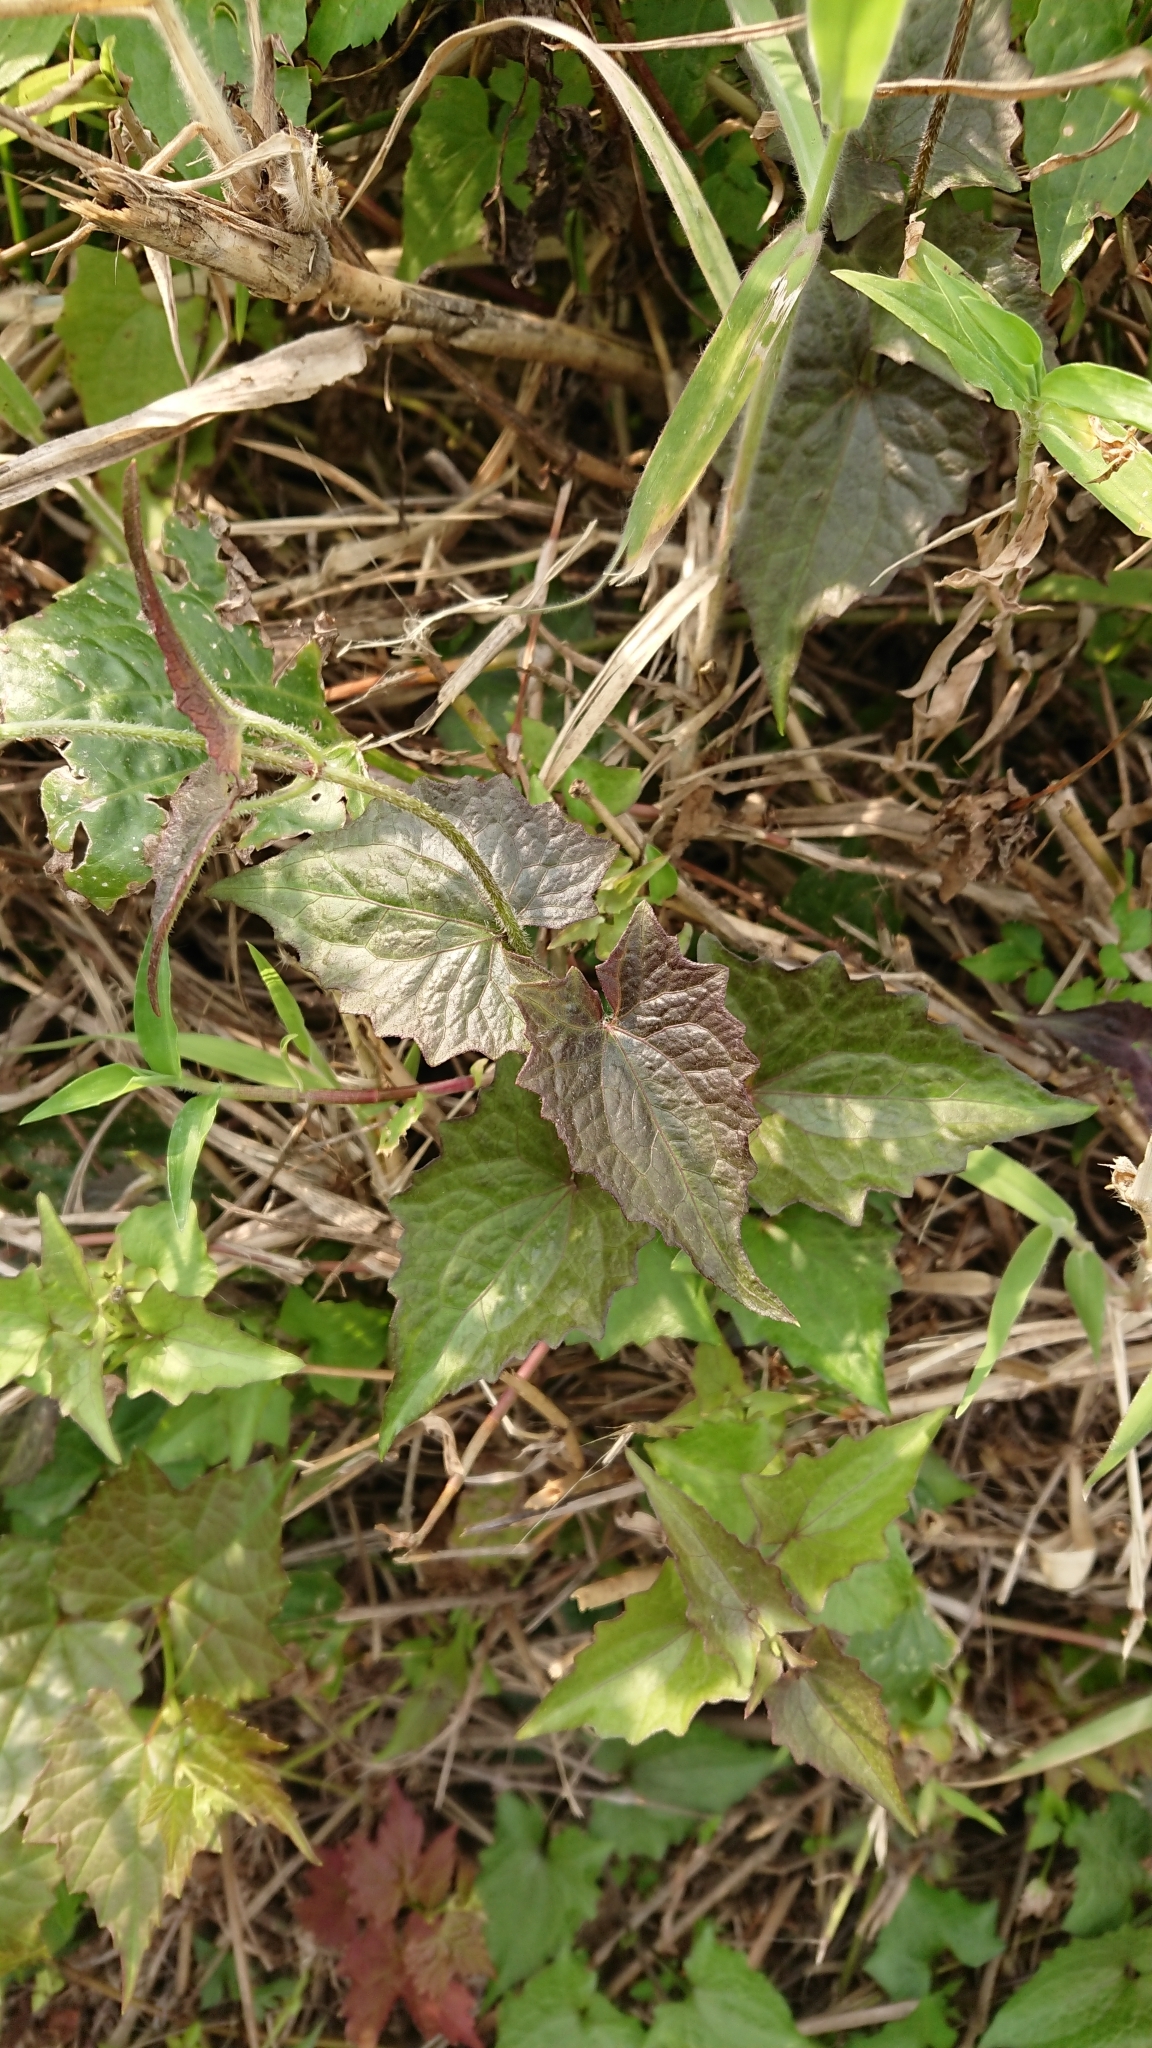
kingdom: Plantae
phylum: Tracheophyta
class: Magnoliopsida
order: Asterales
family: Asteraceae
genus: Mikania
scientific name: Mikania micrantha
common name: Mile-a-minute
